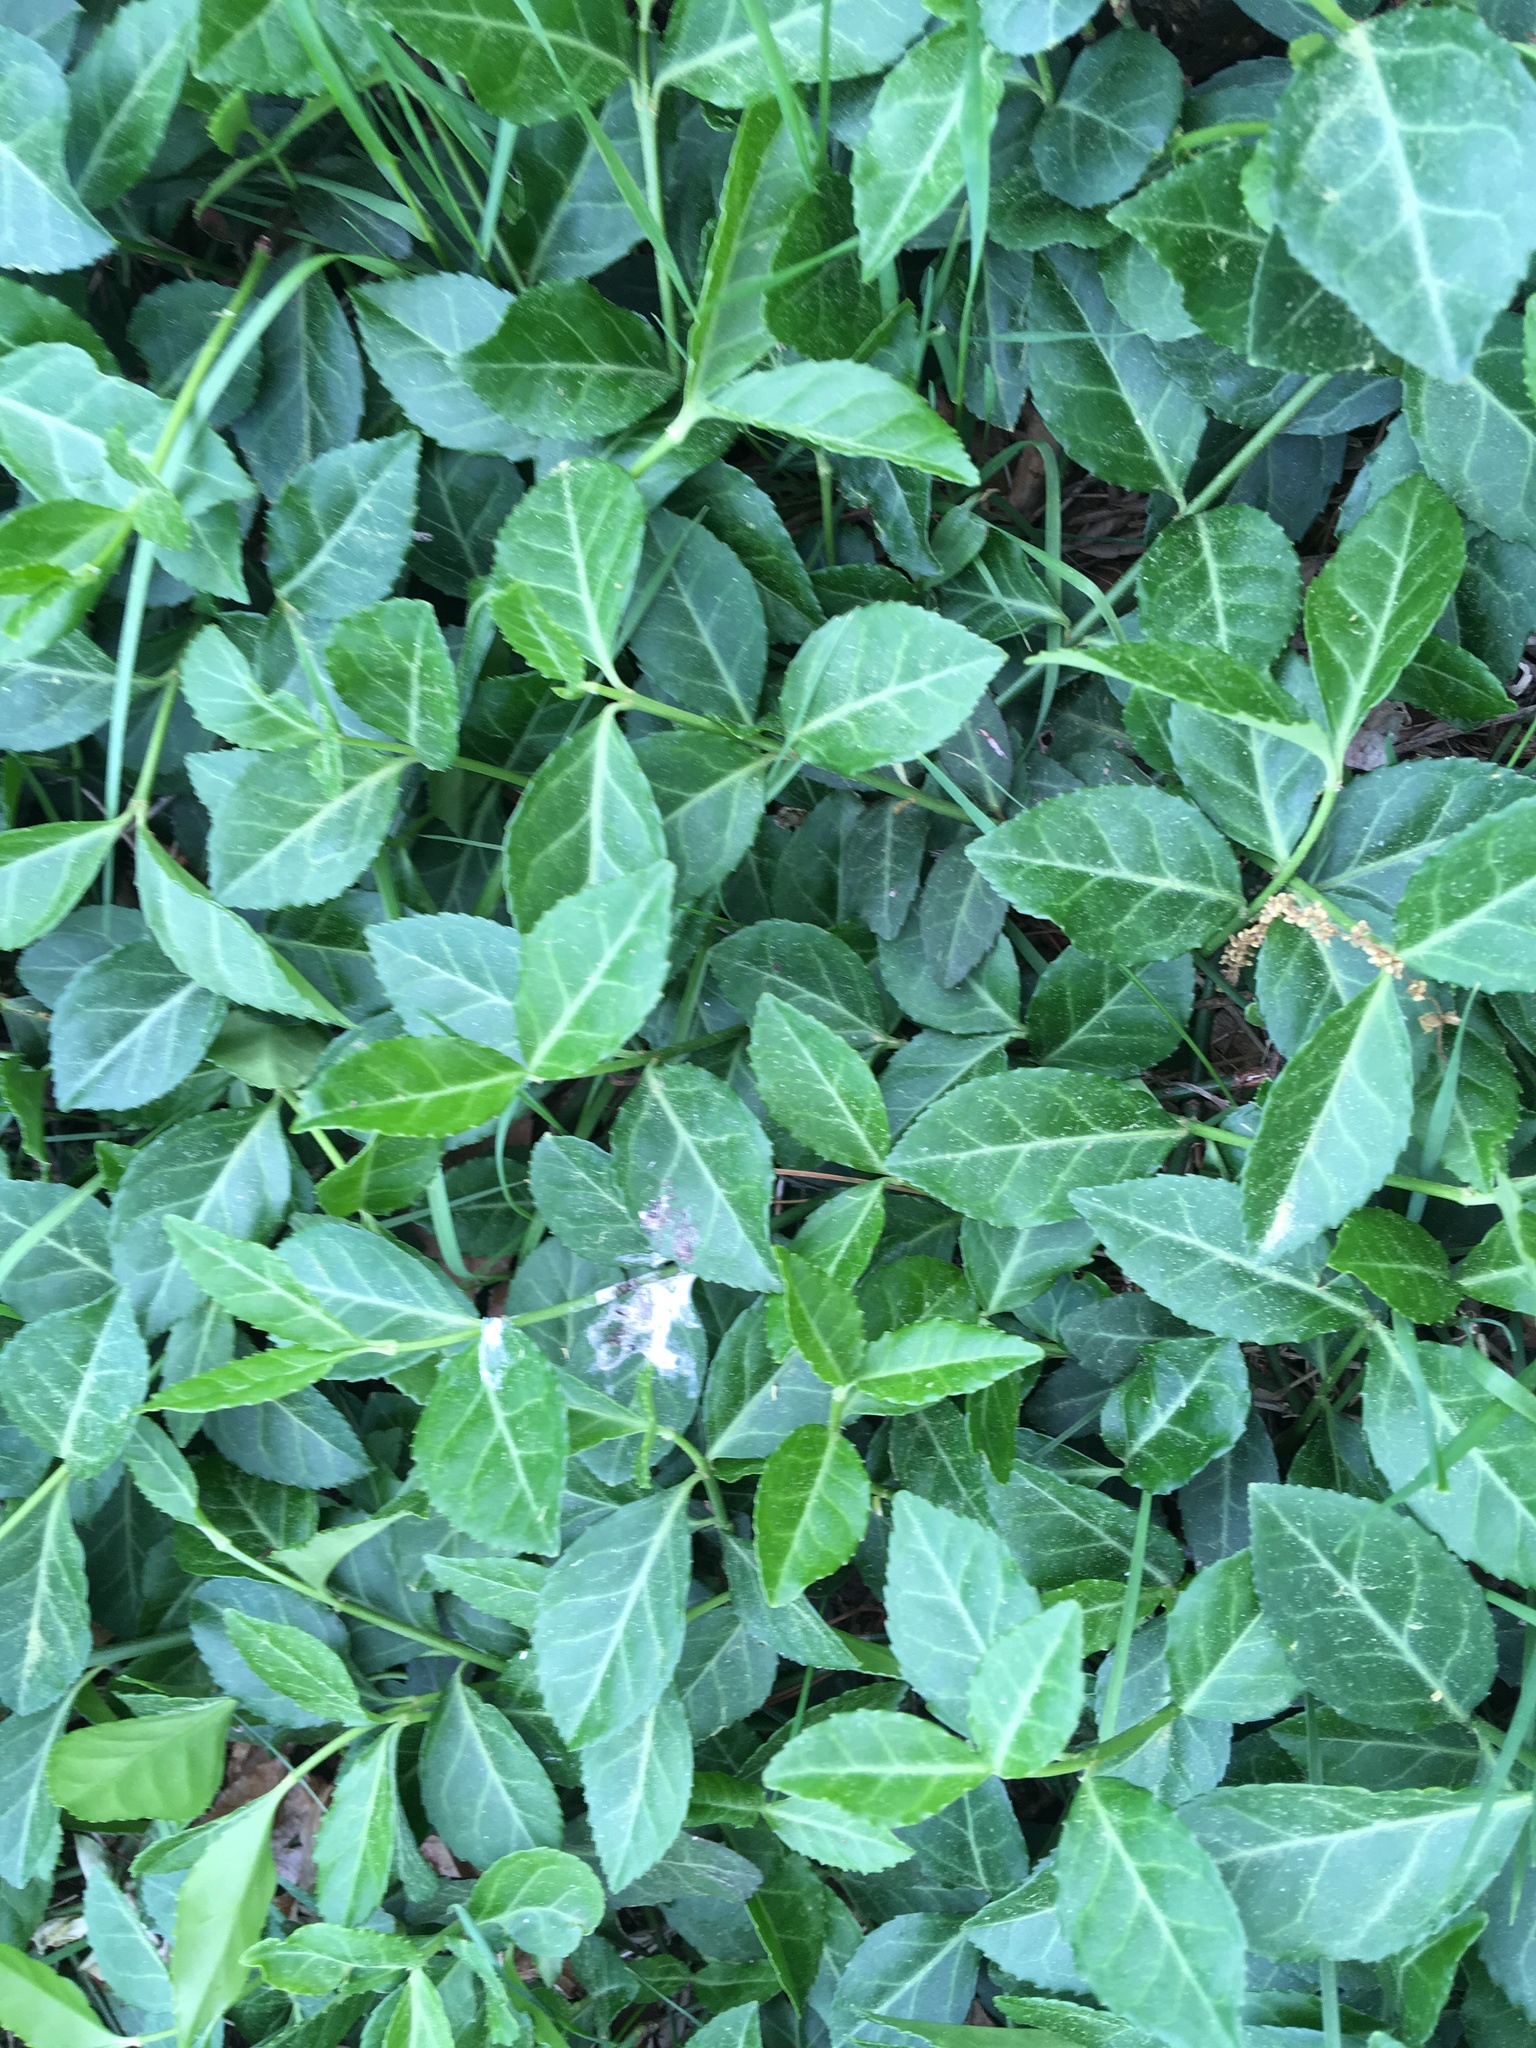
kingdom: Plantae
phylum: Tracheophyta
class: Magnoliopsida
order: Celastrales
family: Celastraceae
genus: Euonymus
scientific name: Euonymus fortunei
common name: Climbing euonymus
